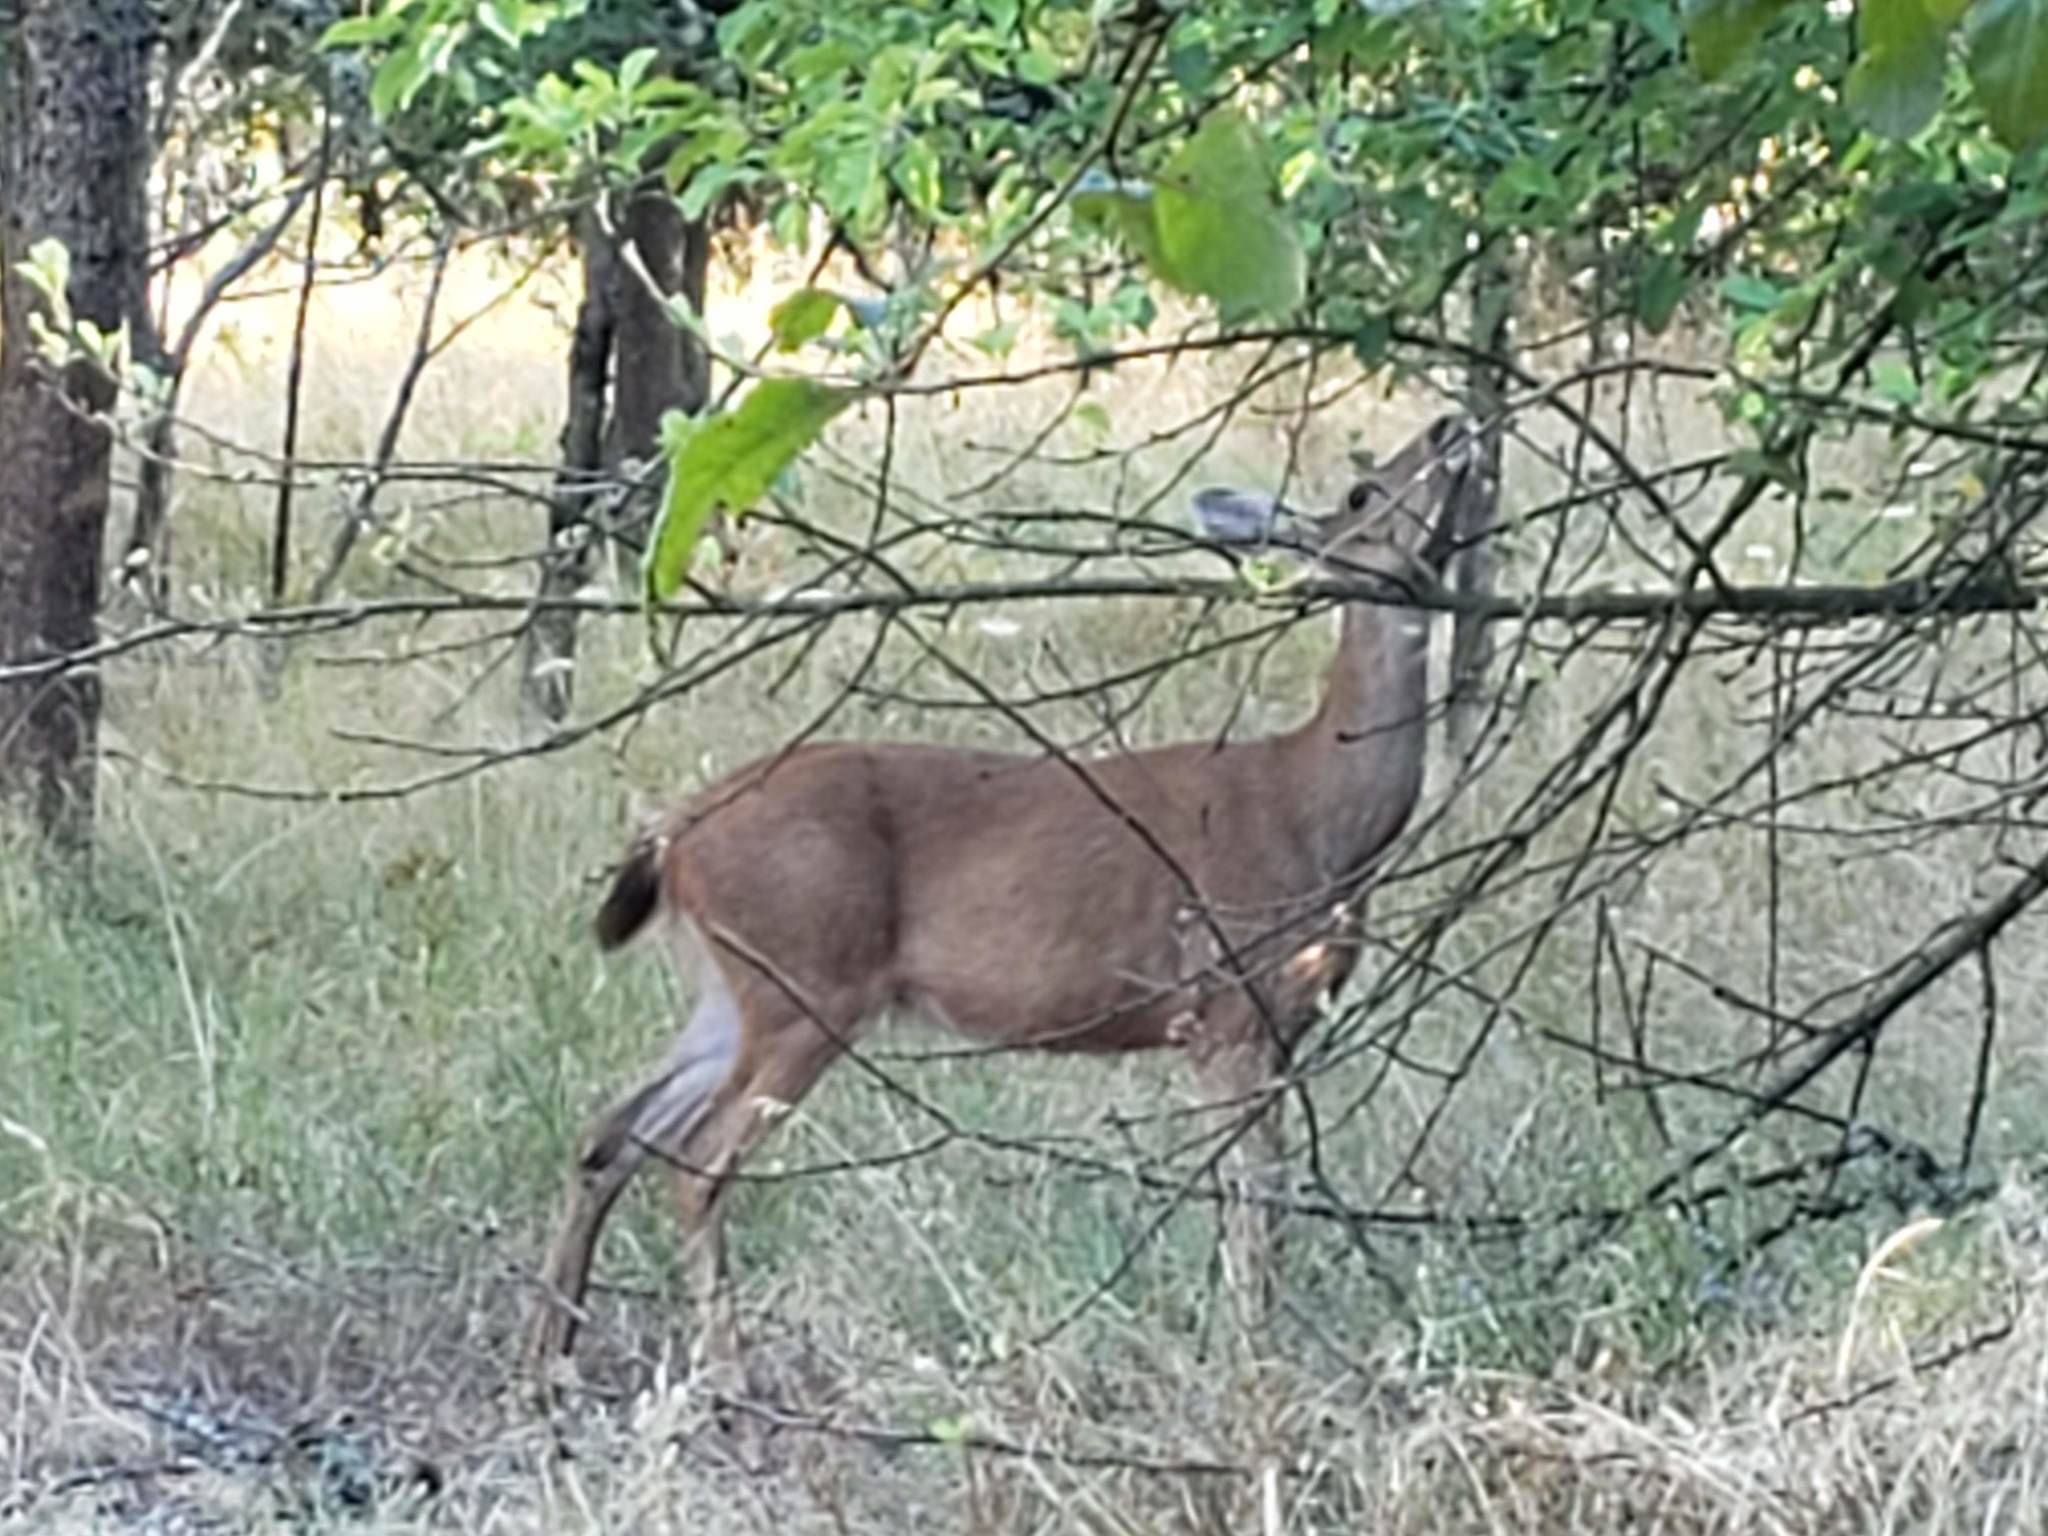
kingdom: Animalia
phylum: Chordata
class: Mammalia
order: Artiodactyla
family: Cervidae
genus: Odocoileus
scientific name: Odocoileus hemionus
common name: Mule deer
